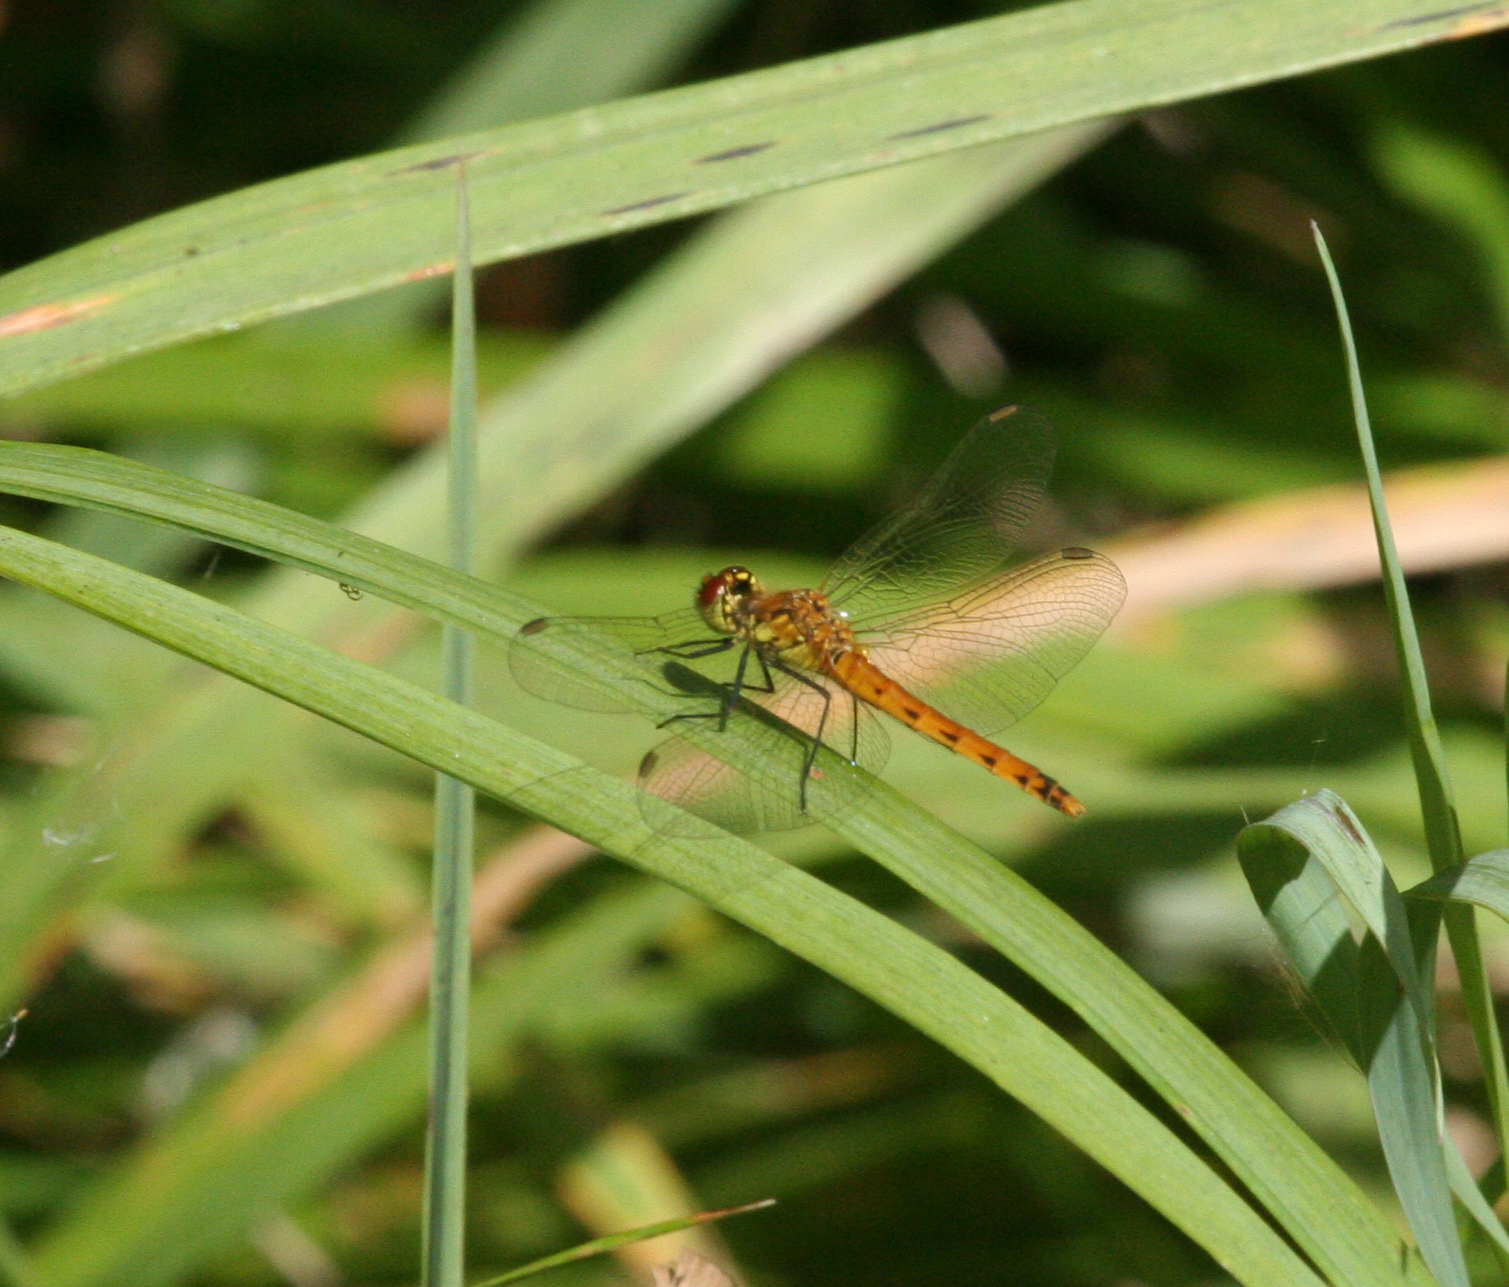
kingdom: Animalia
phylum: Arthropoda
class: Insecta
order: Odonata
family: Libellulidae
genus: Sympetrum
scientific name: Sympetrum depressiusculum
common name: Spotted darter
